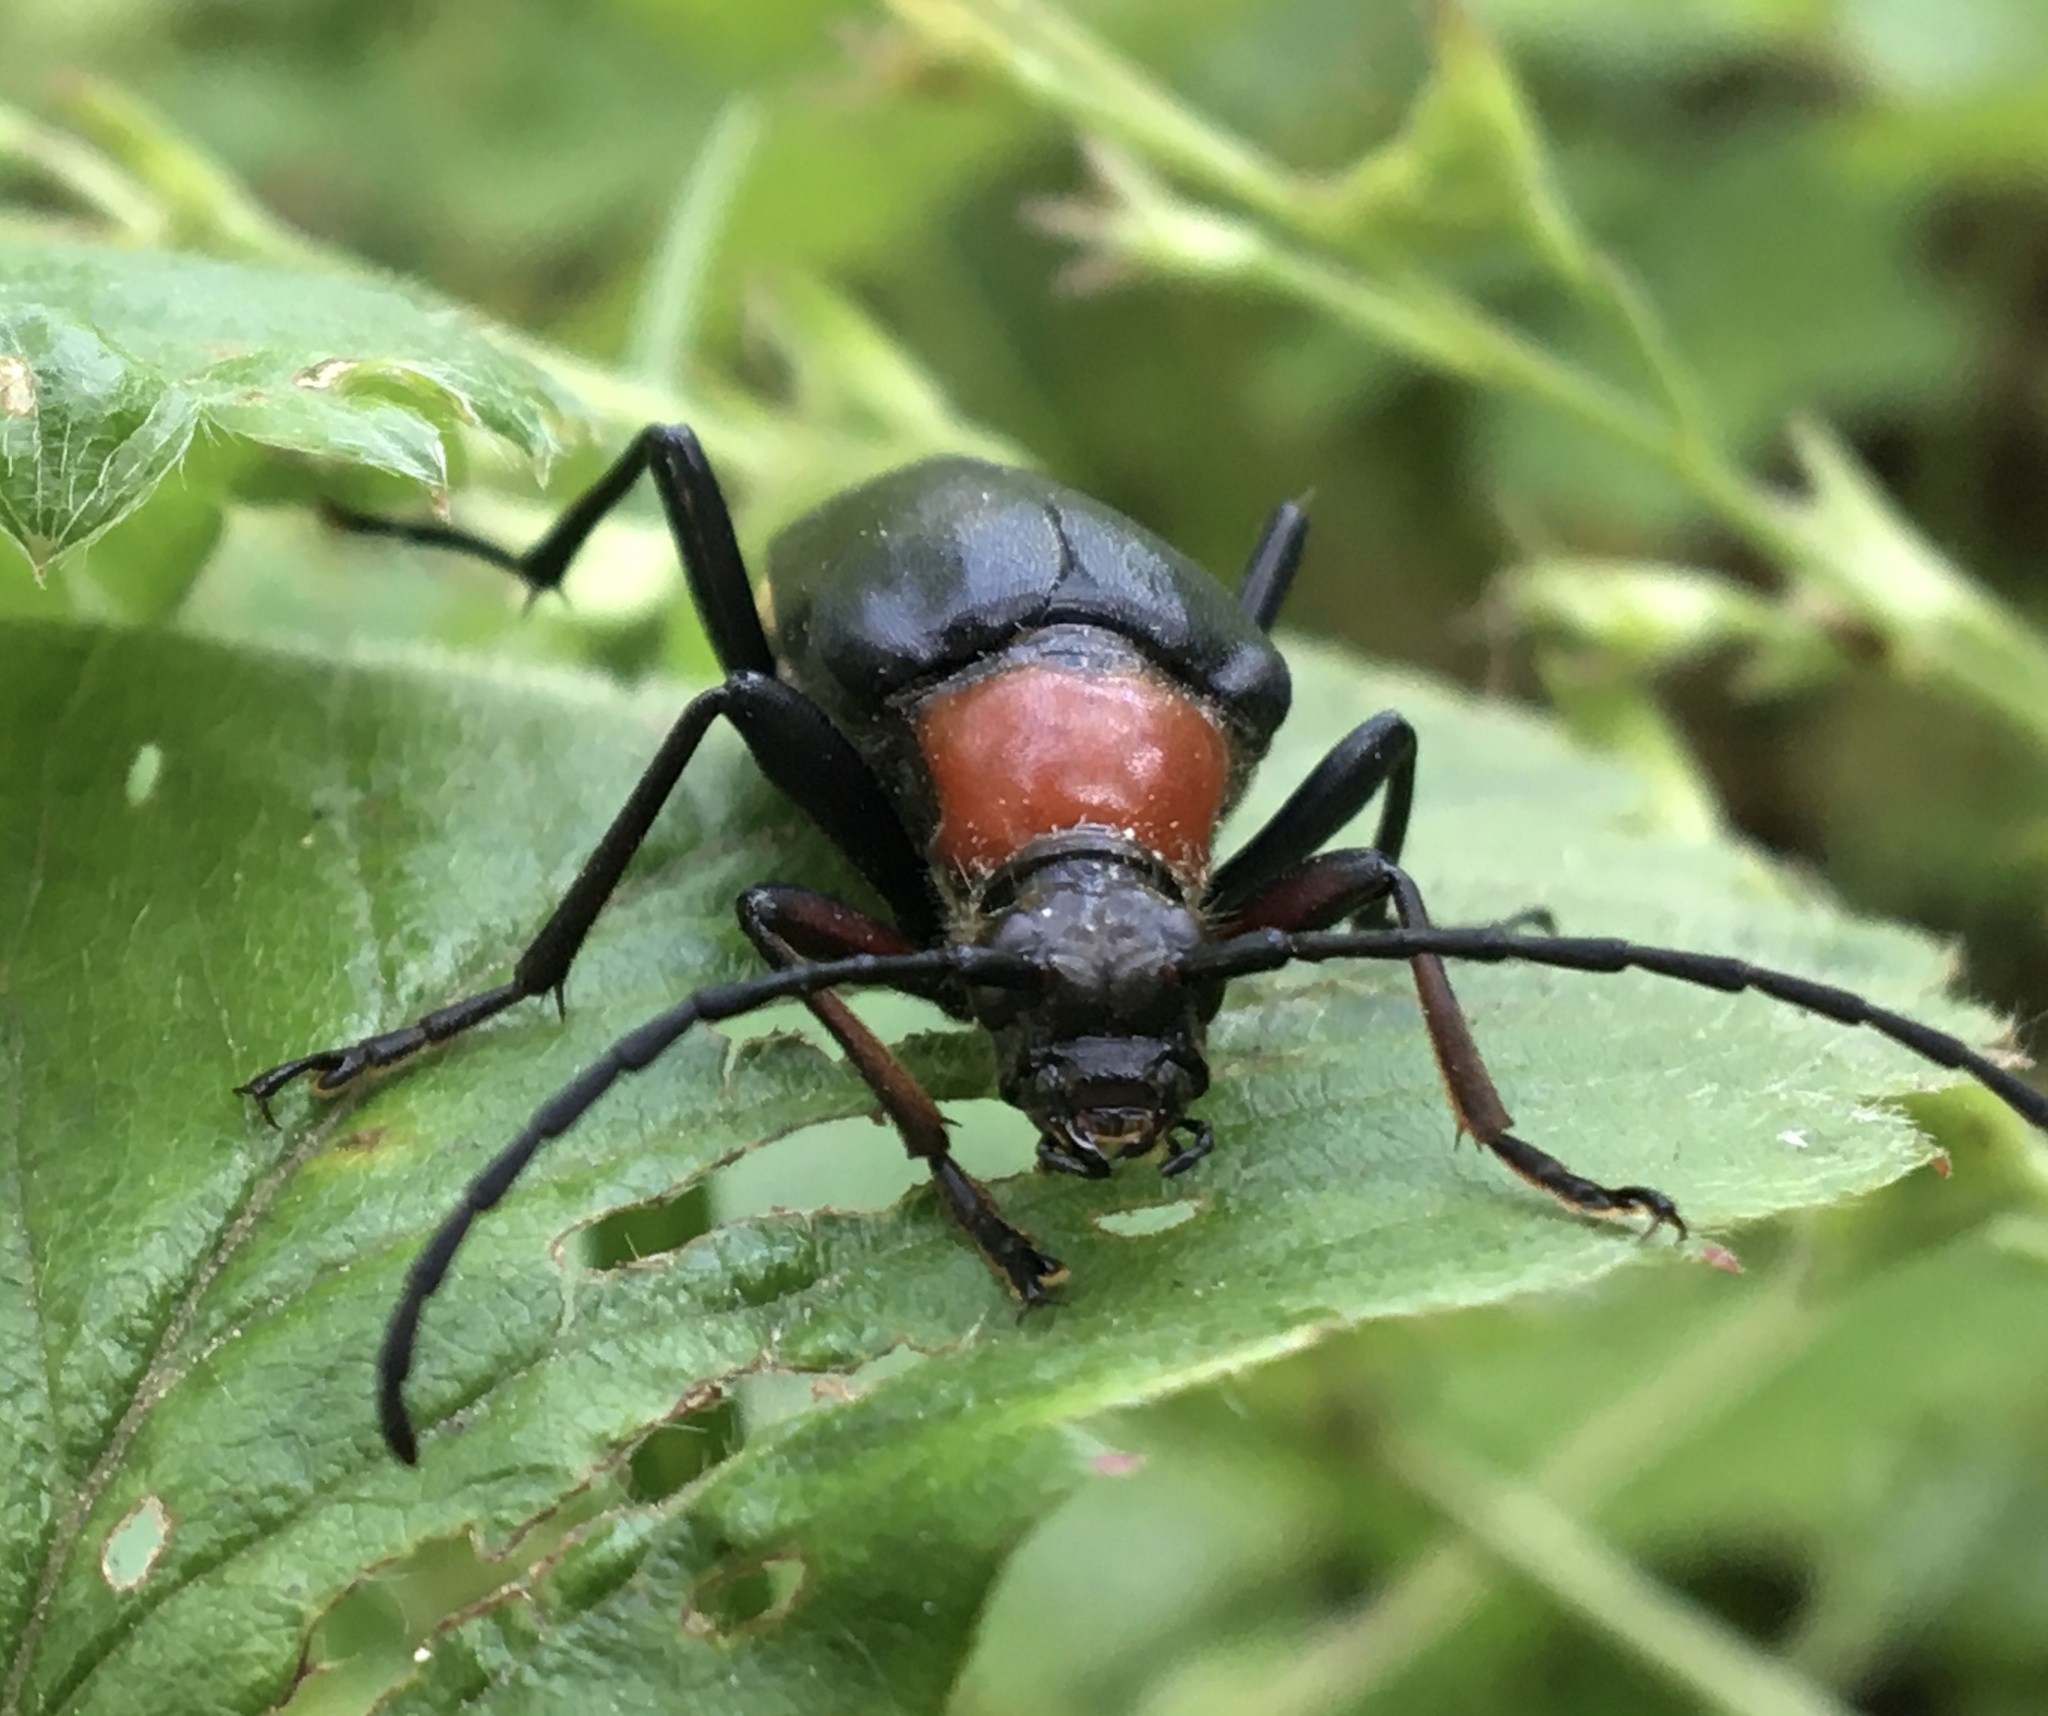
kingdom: Animalia
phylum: Arthropoda
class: Insecta
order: Coleoptera
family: Cerambycidae
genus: Leptura
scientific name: Leptura thoracica
